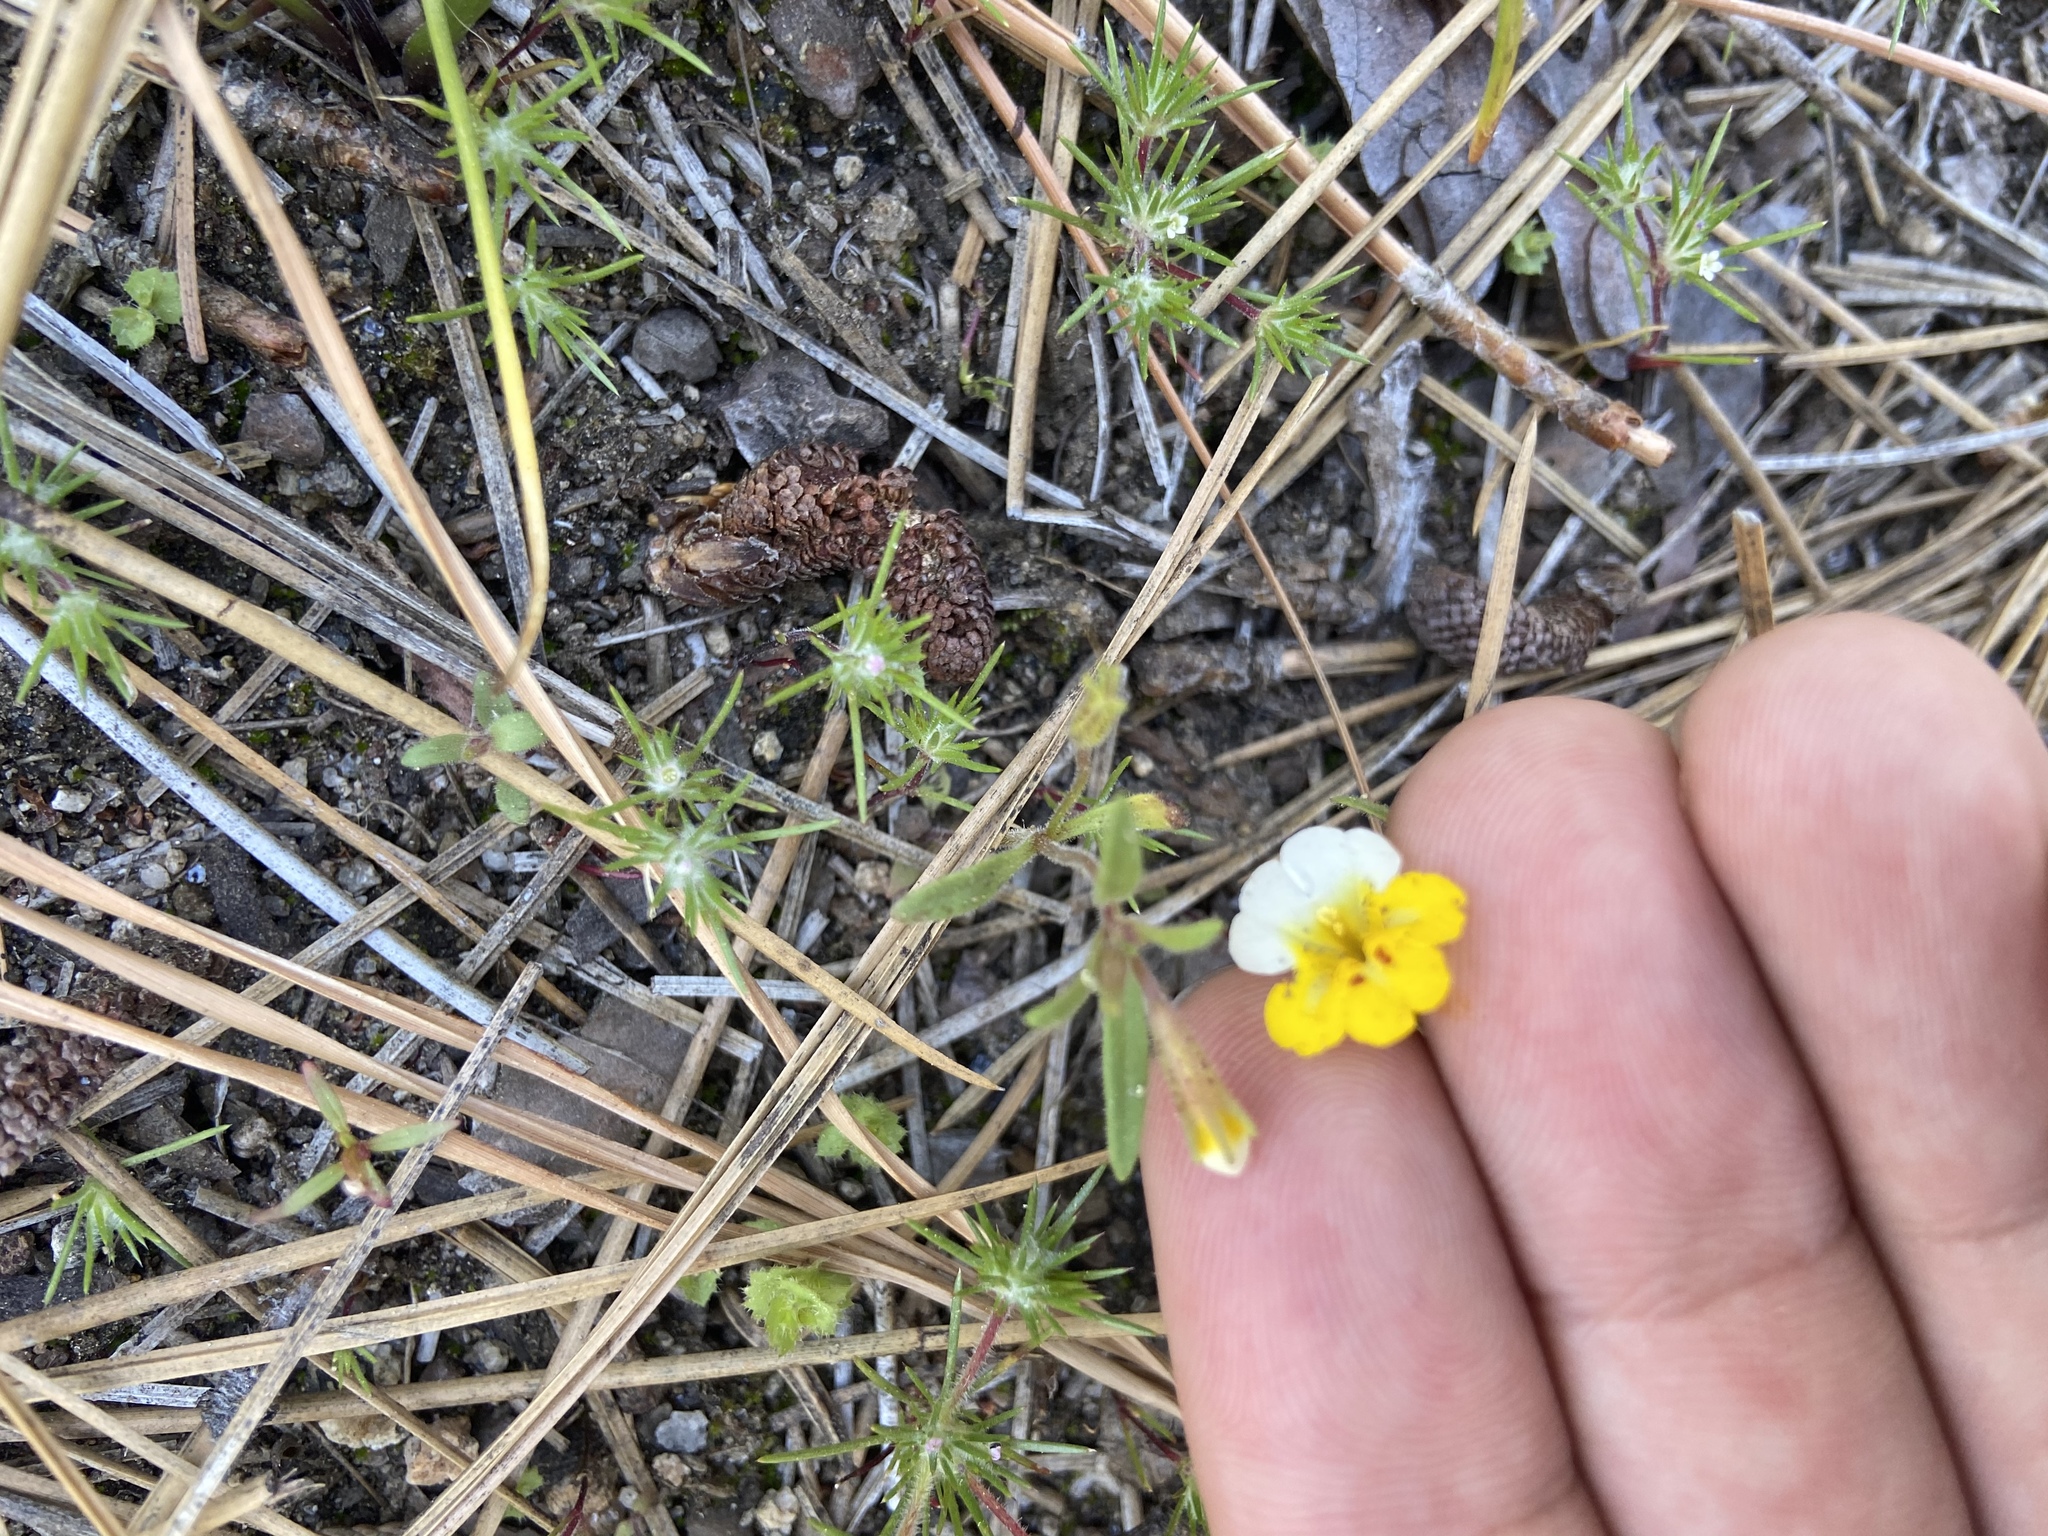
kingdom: Plantae
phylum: Tracheophyta
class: Magnoliopsida
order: Lamiales
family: Phrymaceae
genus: Erythranthe
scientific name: Erythranthe bicolor
